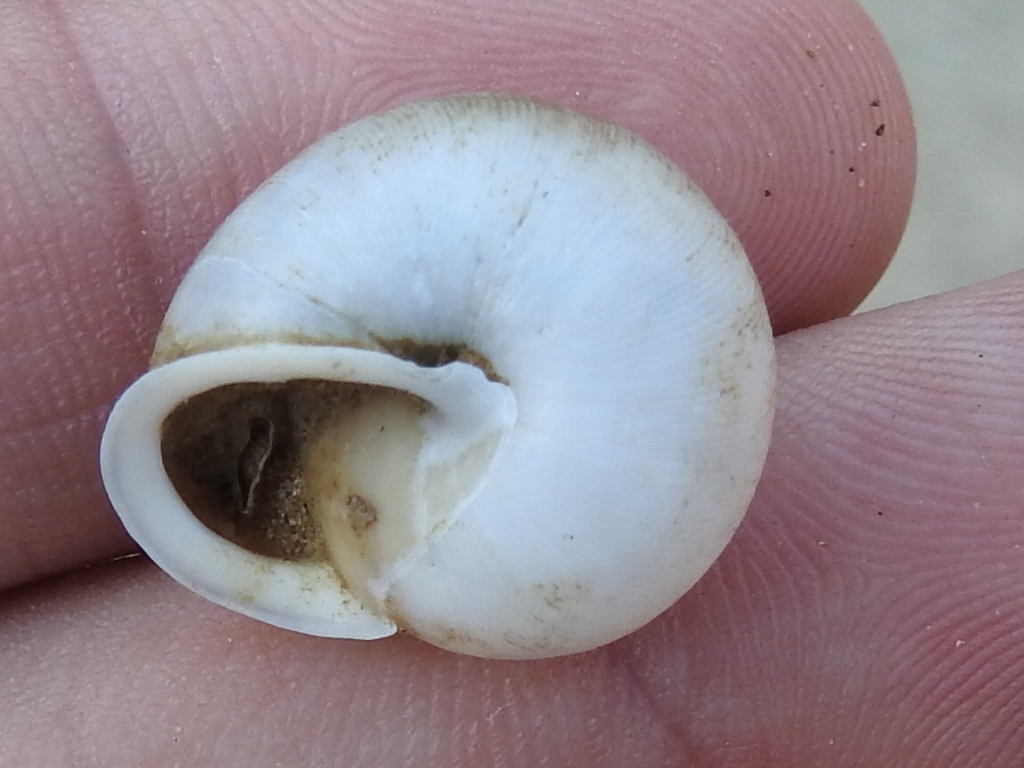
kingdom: Animalia
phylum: Mollusca
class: Gastropoda
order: Stylommatophora
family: Polygyridae
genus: Patera
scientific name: Patera roemeri
